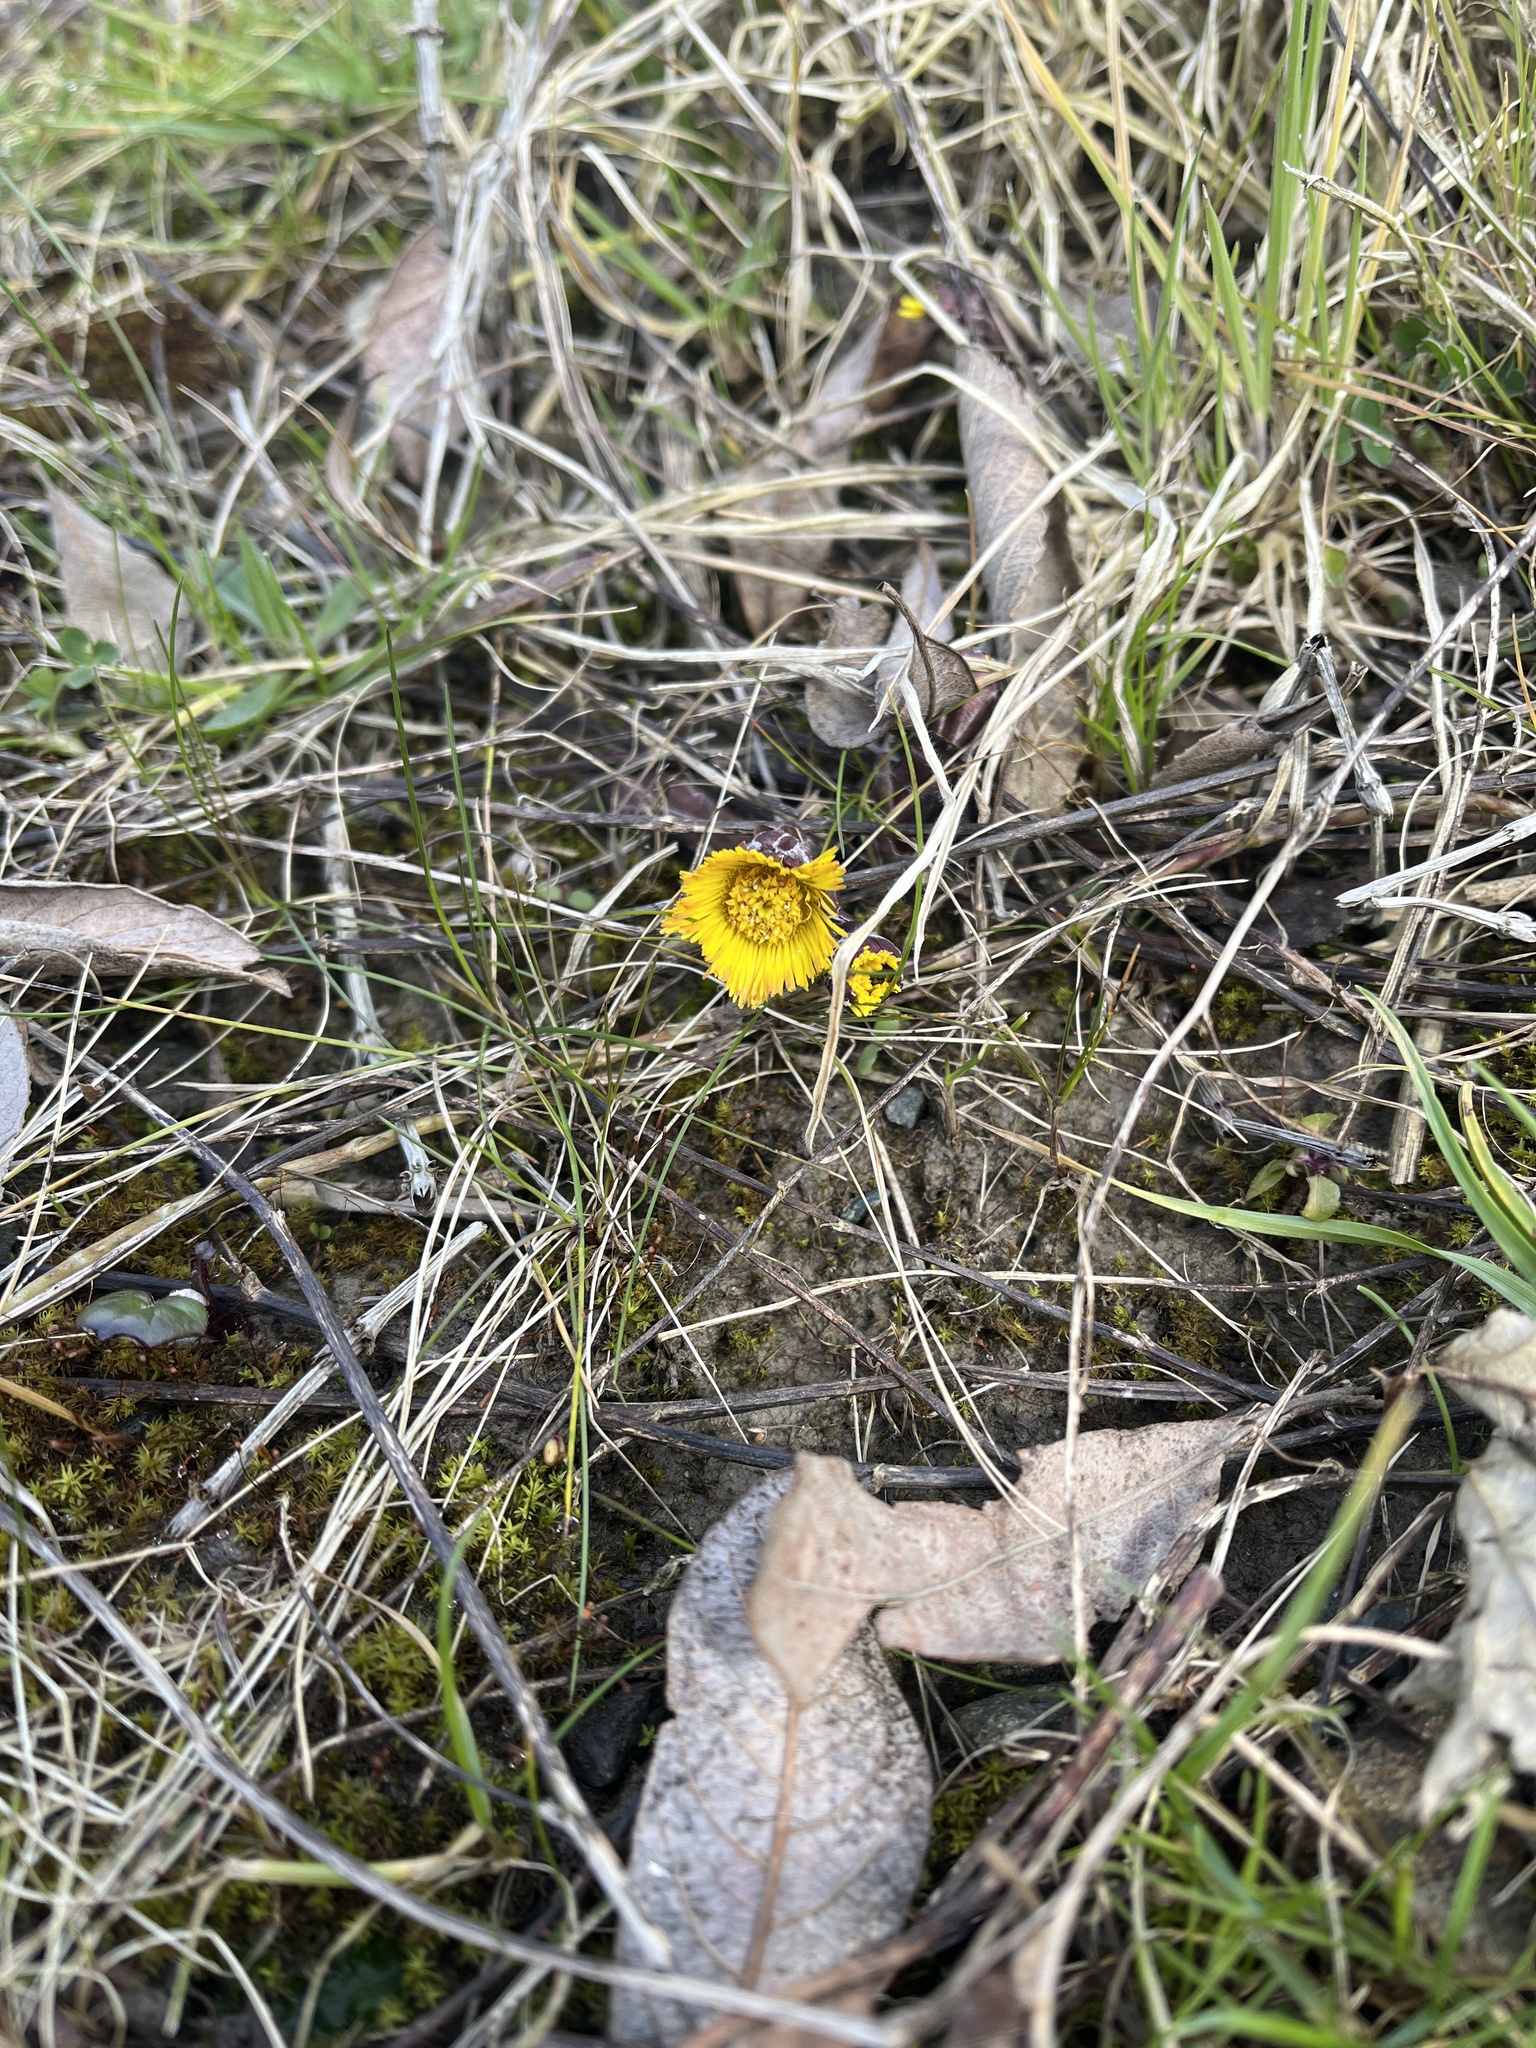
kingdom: Plantae
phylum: Tracheophyta
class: Magnoliopsida
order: Asterales
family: Asteraceae
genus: Tussilago
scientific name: Tussilago farfara
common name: Coltsfoot
